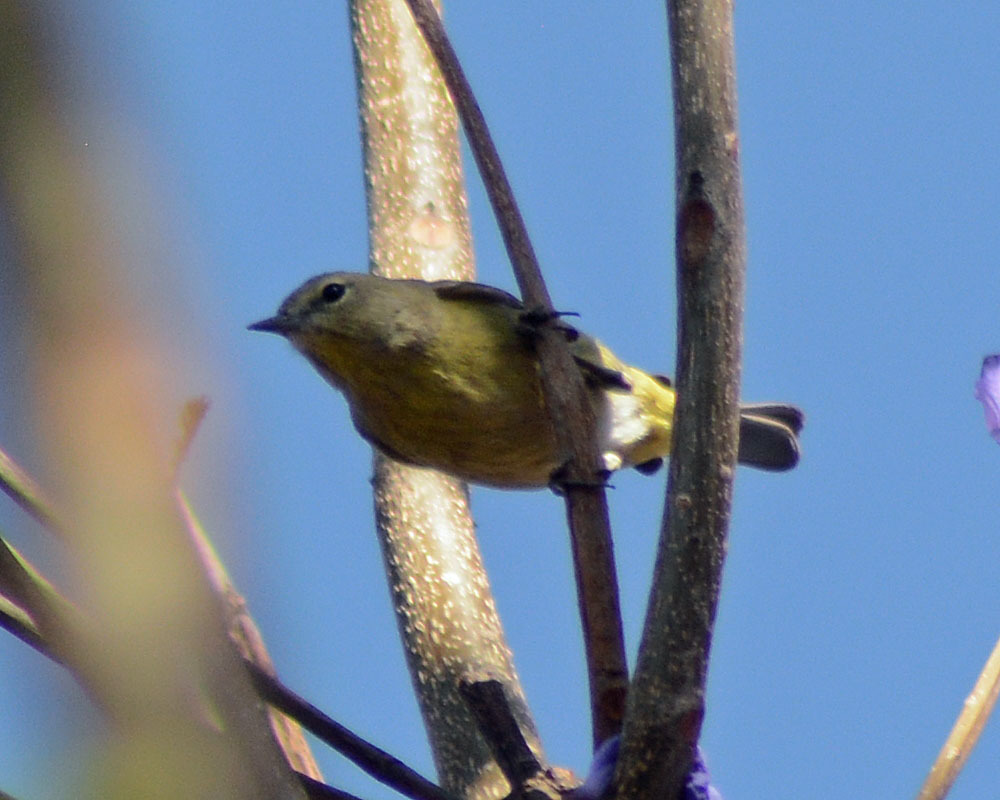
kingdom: Animalia
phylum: Chordata
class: Aves
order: Passeriformes
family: Parulidae
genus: Leiothlypis
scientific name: Leiothlypis celata
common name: Orange-crowned warbler
